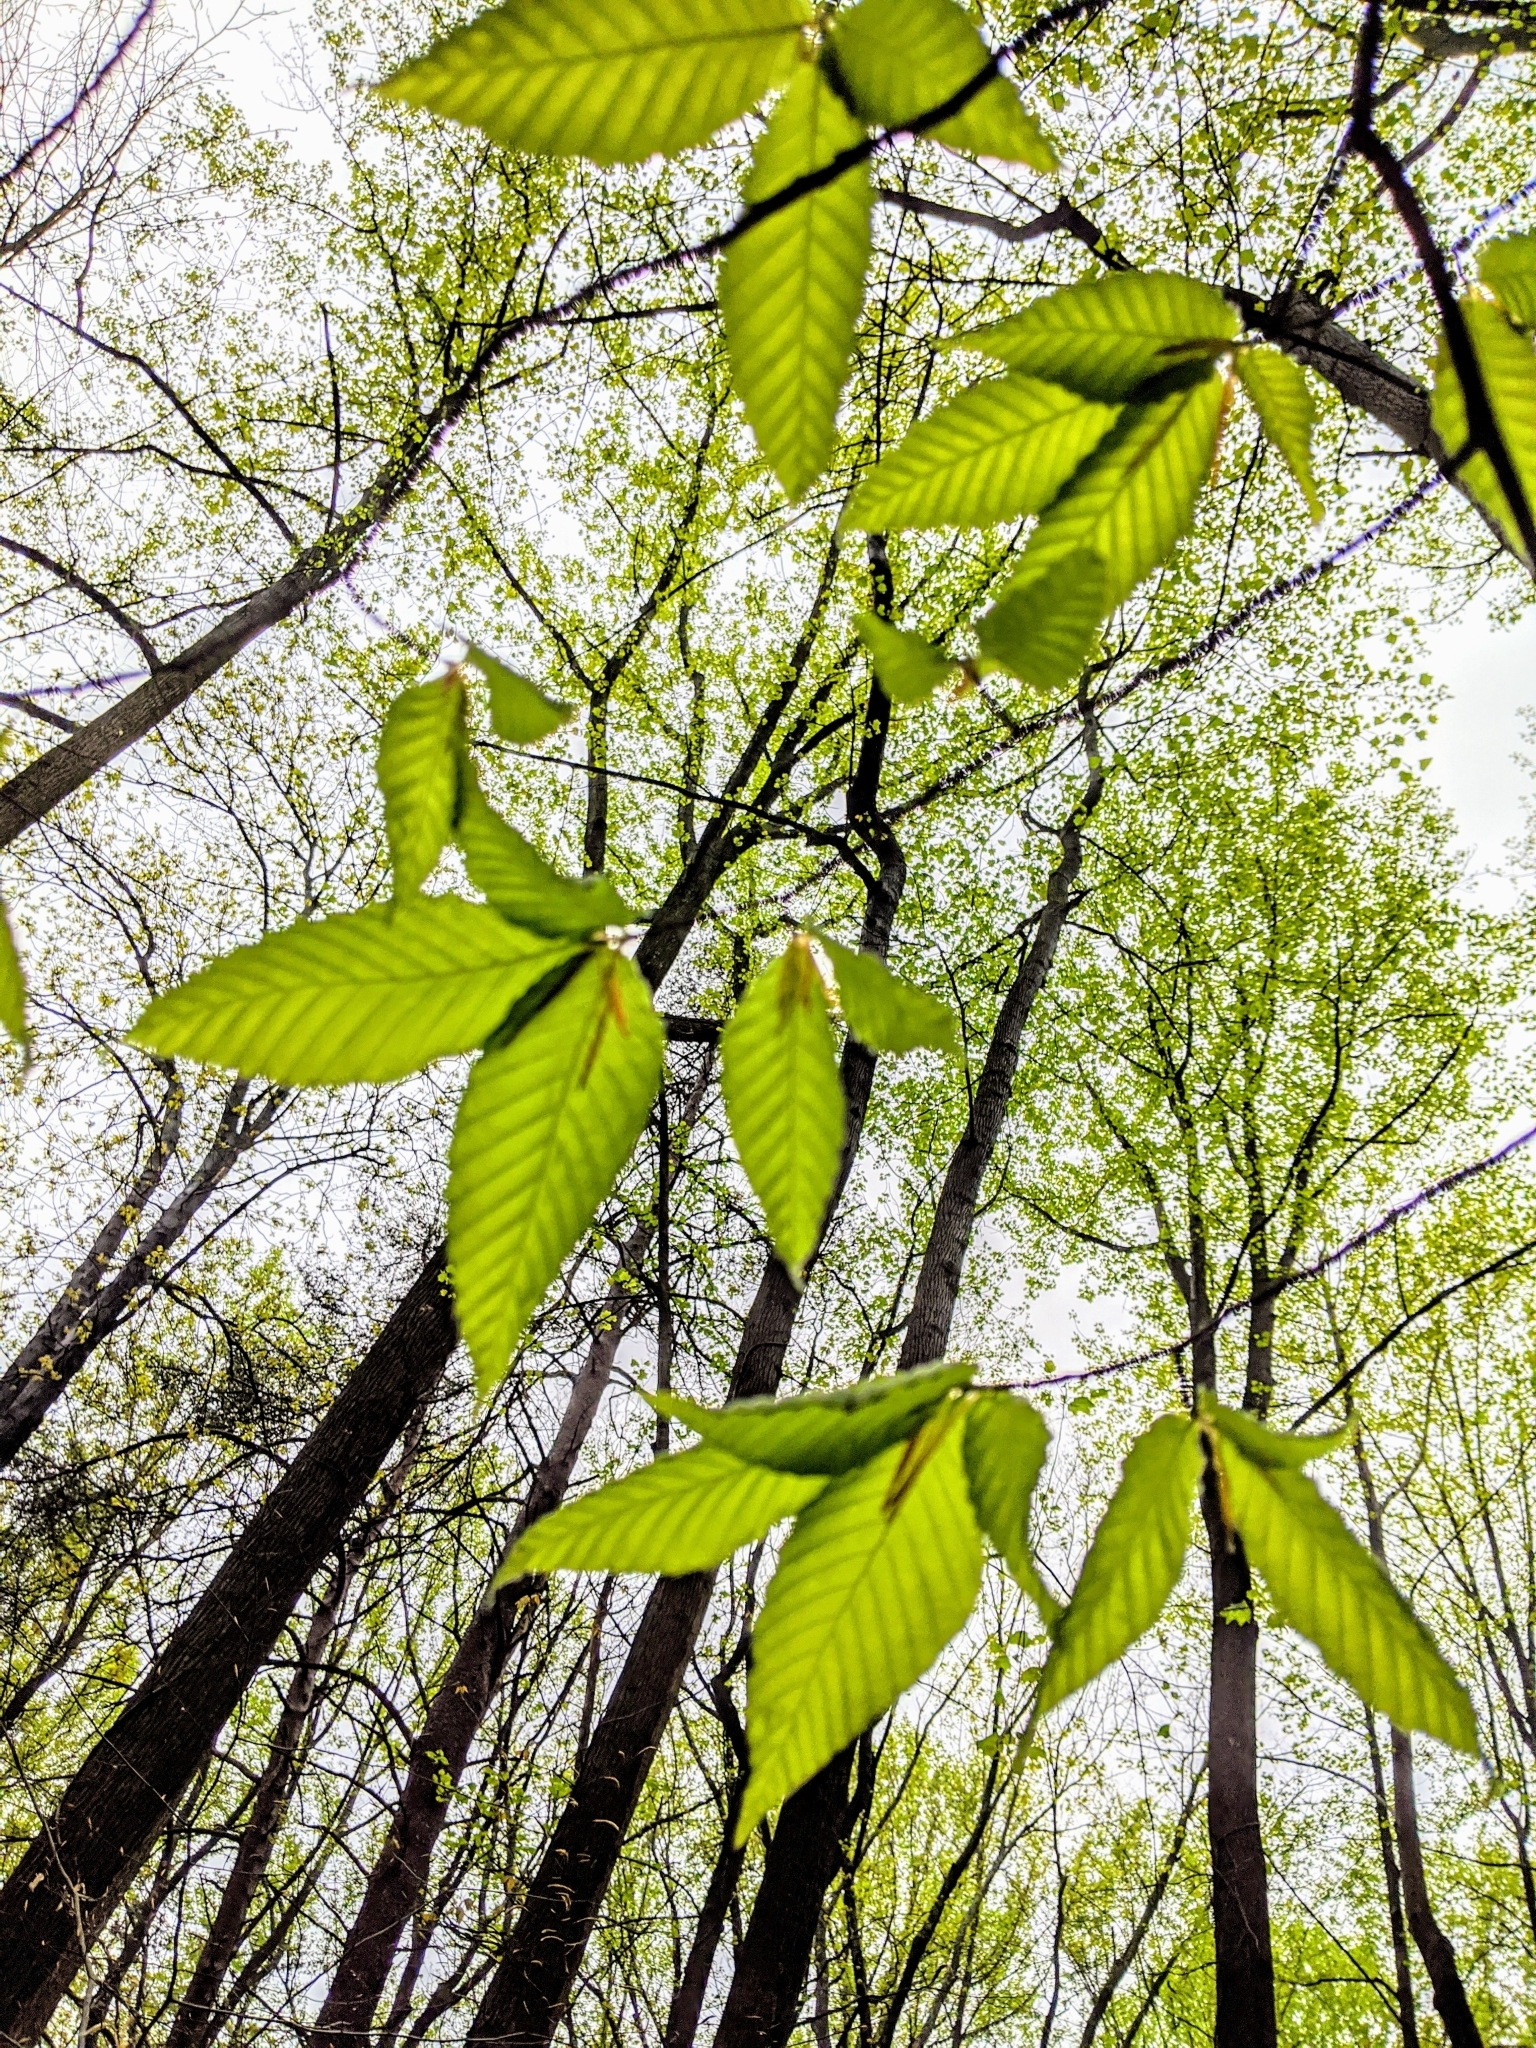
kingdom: Plantae
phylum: Tracheophyta
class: Magnoliopsida
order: Fagales
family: Fagaceae
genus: Fagus
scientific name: Fagus grandifolia
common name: American beech
